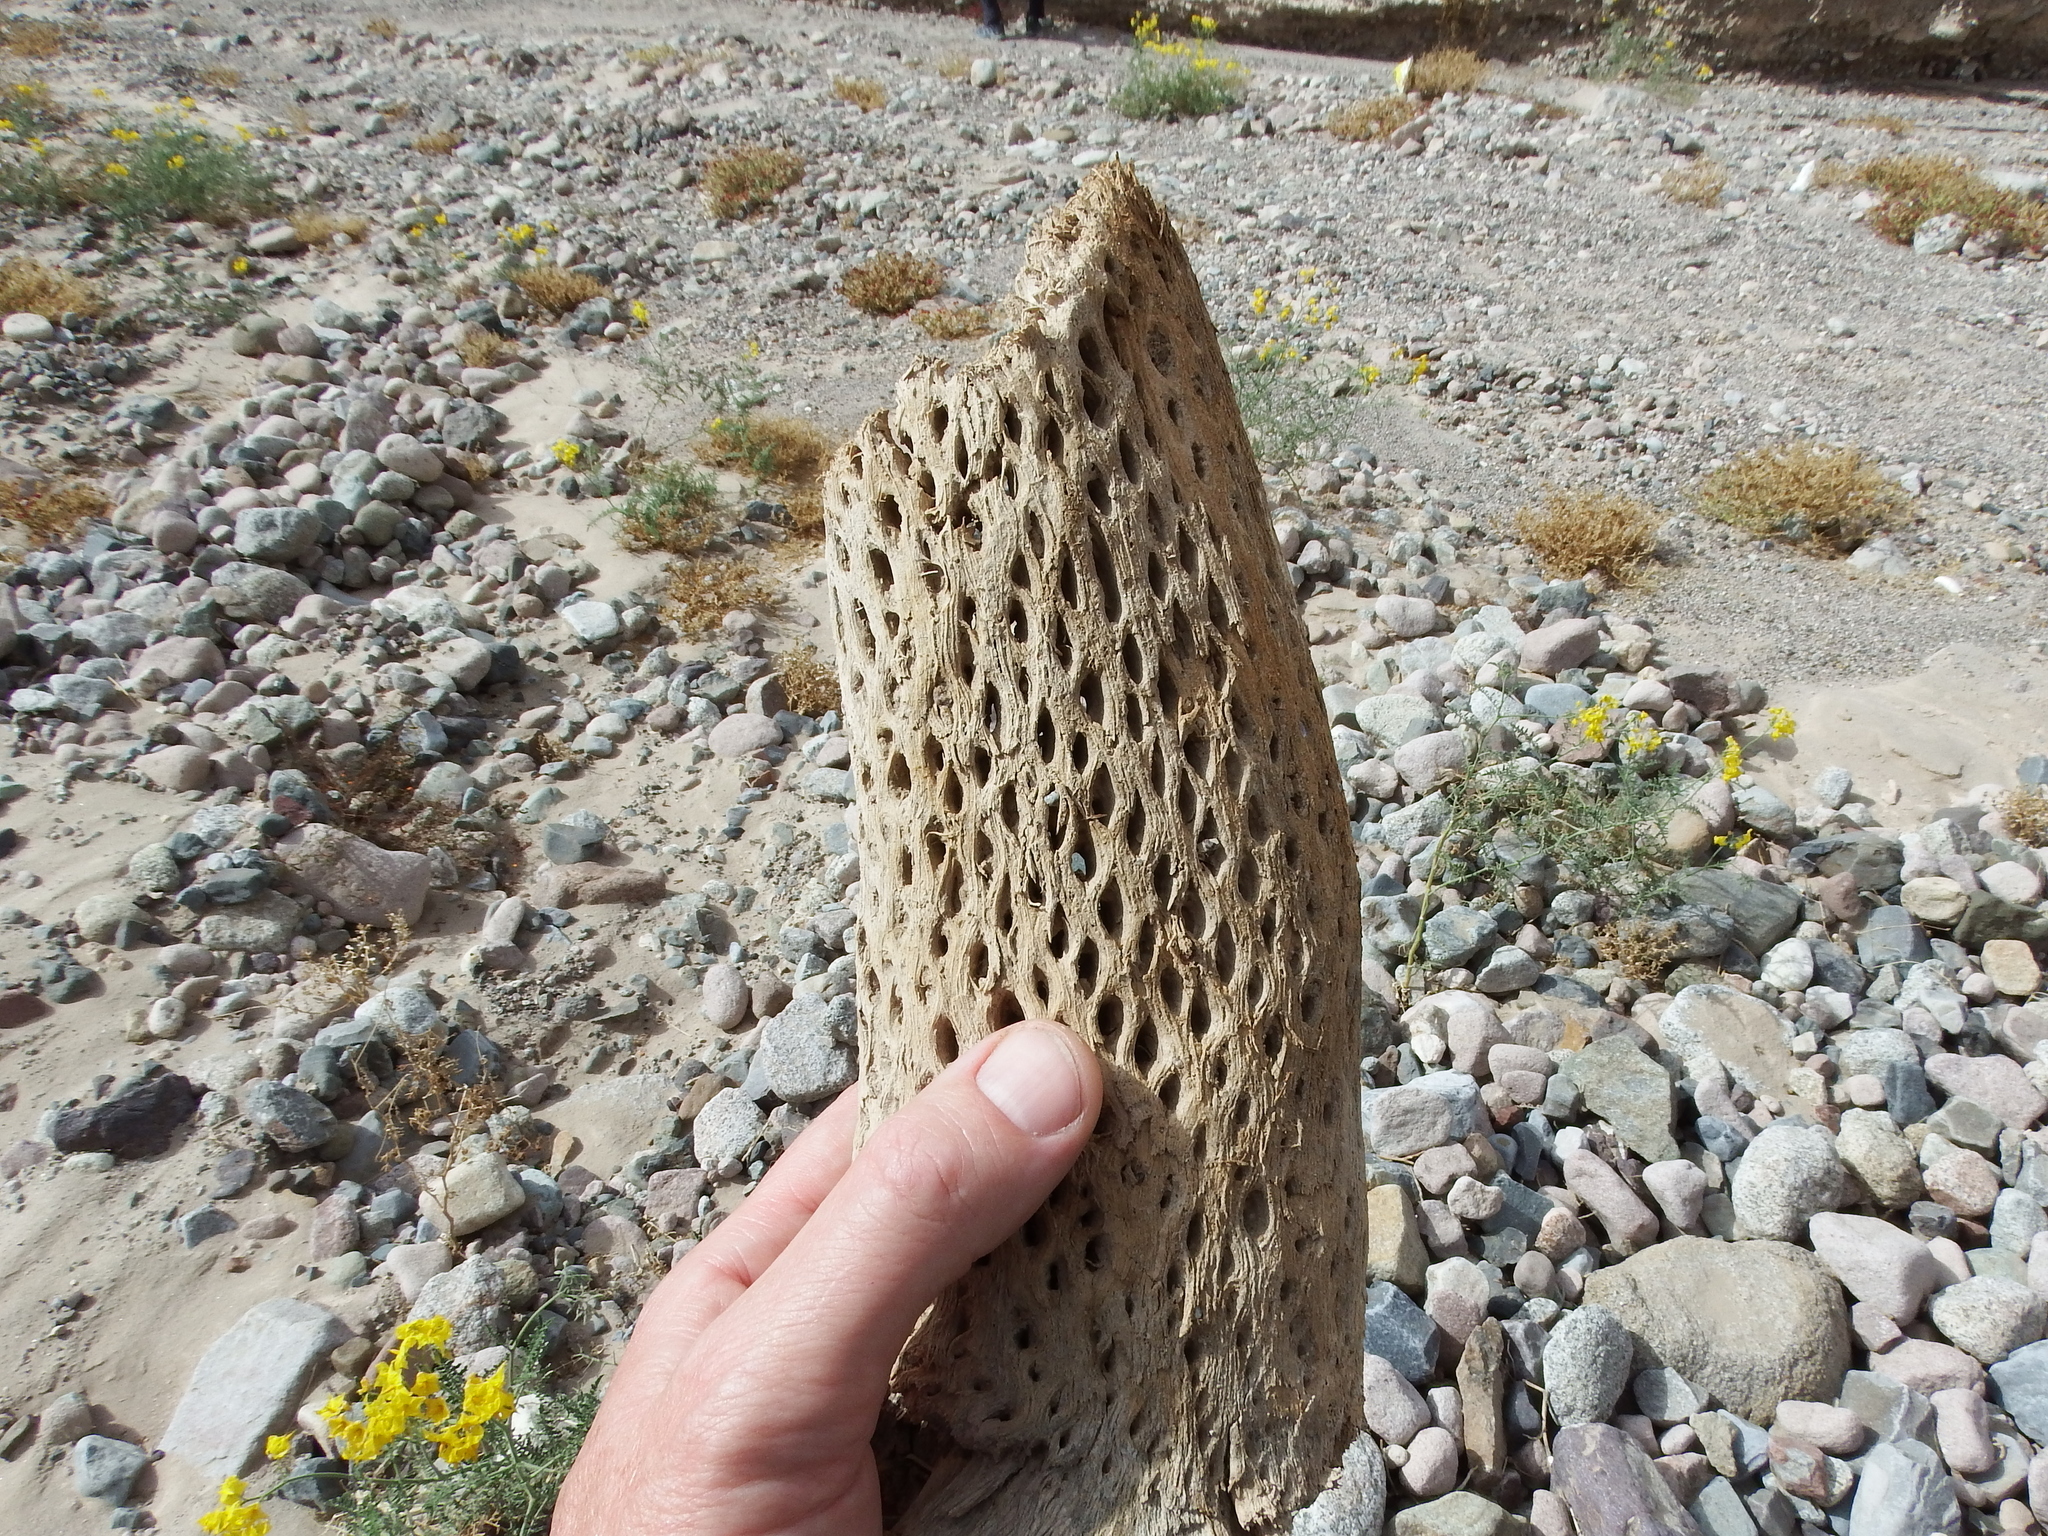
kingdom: Plantae
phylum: Tracheophyta
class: Magnoliopsida
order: Caryophyllales
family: Cactaceae
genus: Browningia
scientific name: Browningia candelaris
